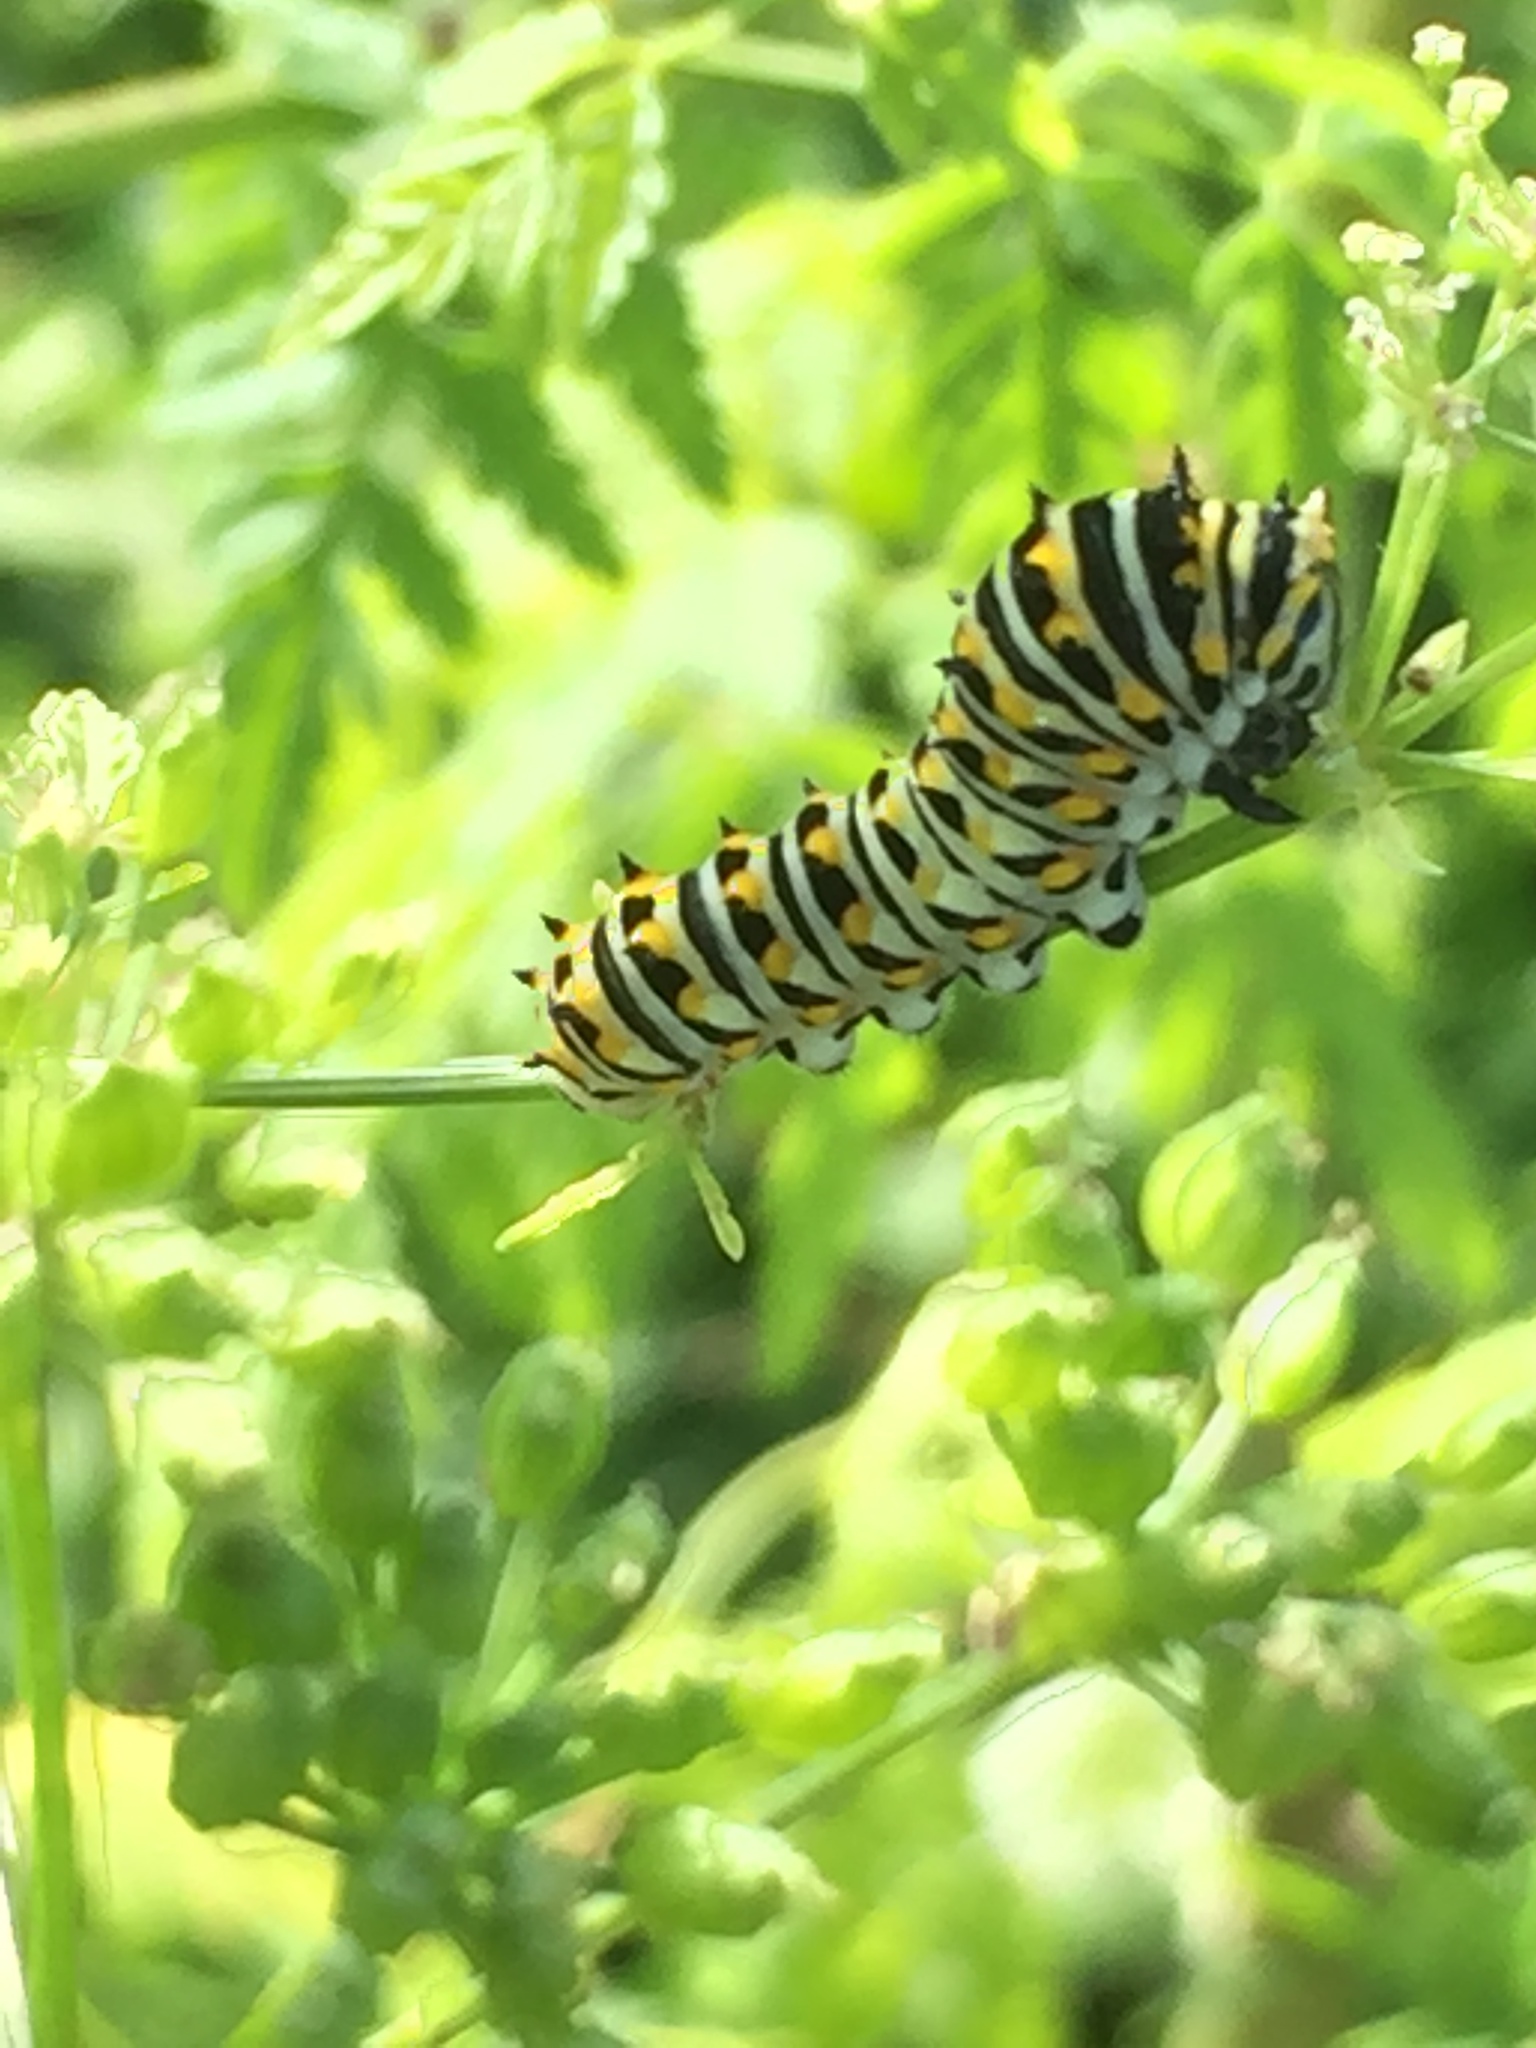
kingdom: Animalia
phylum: Arthropoda
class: Insecta
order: Lepidoptera
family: Papilionidae
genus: Papilio
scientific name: Papilio polyxenes
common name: Black swallowtail
